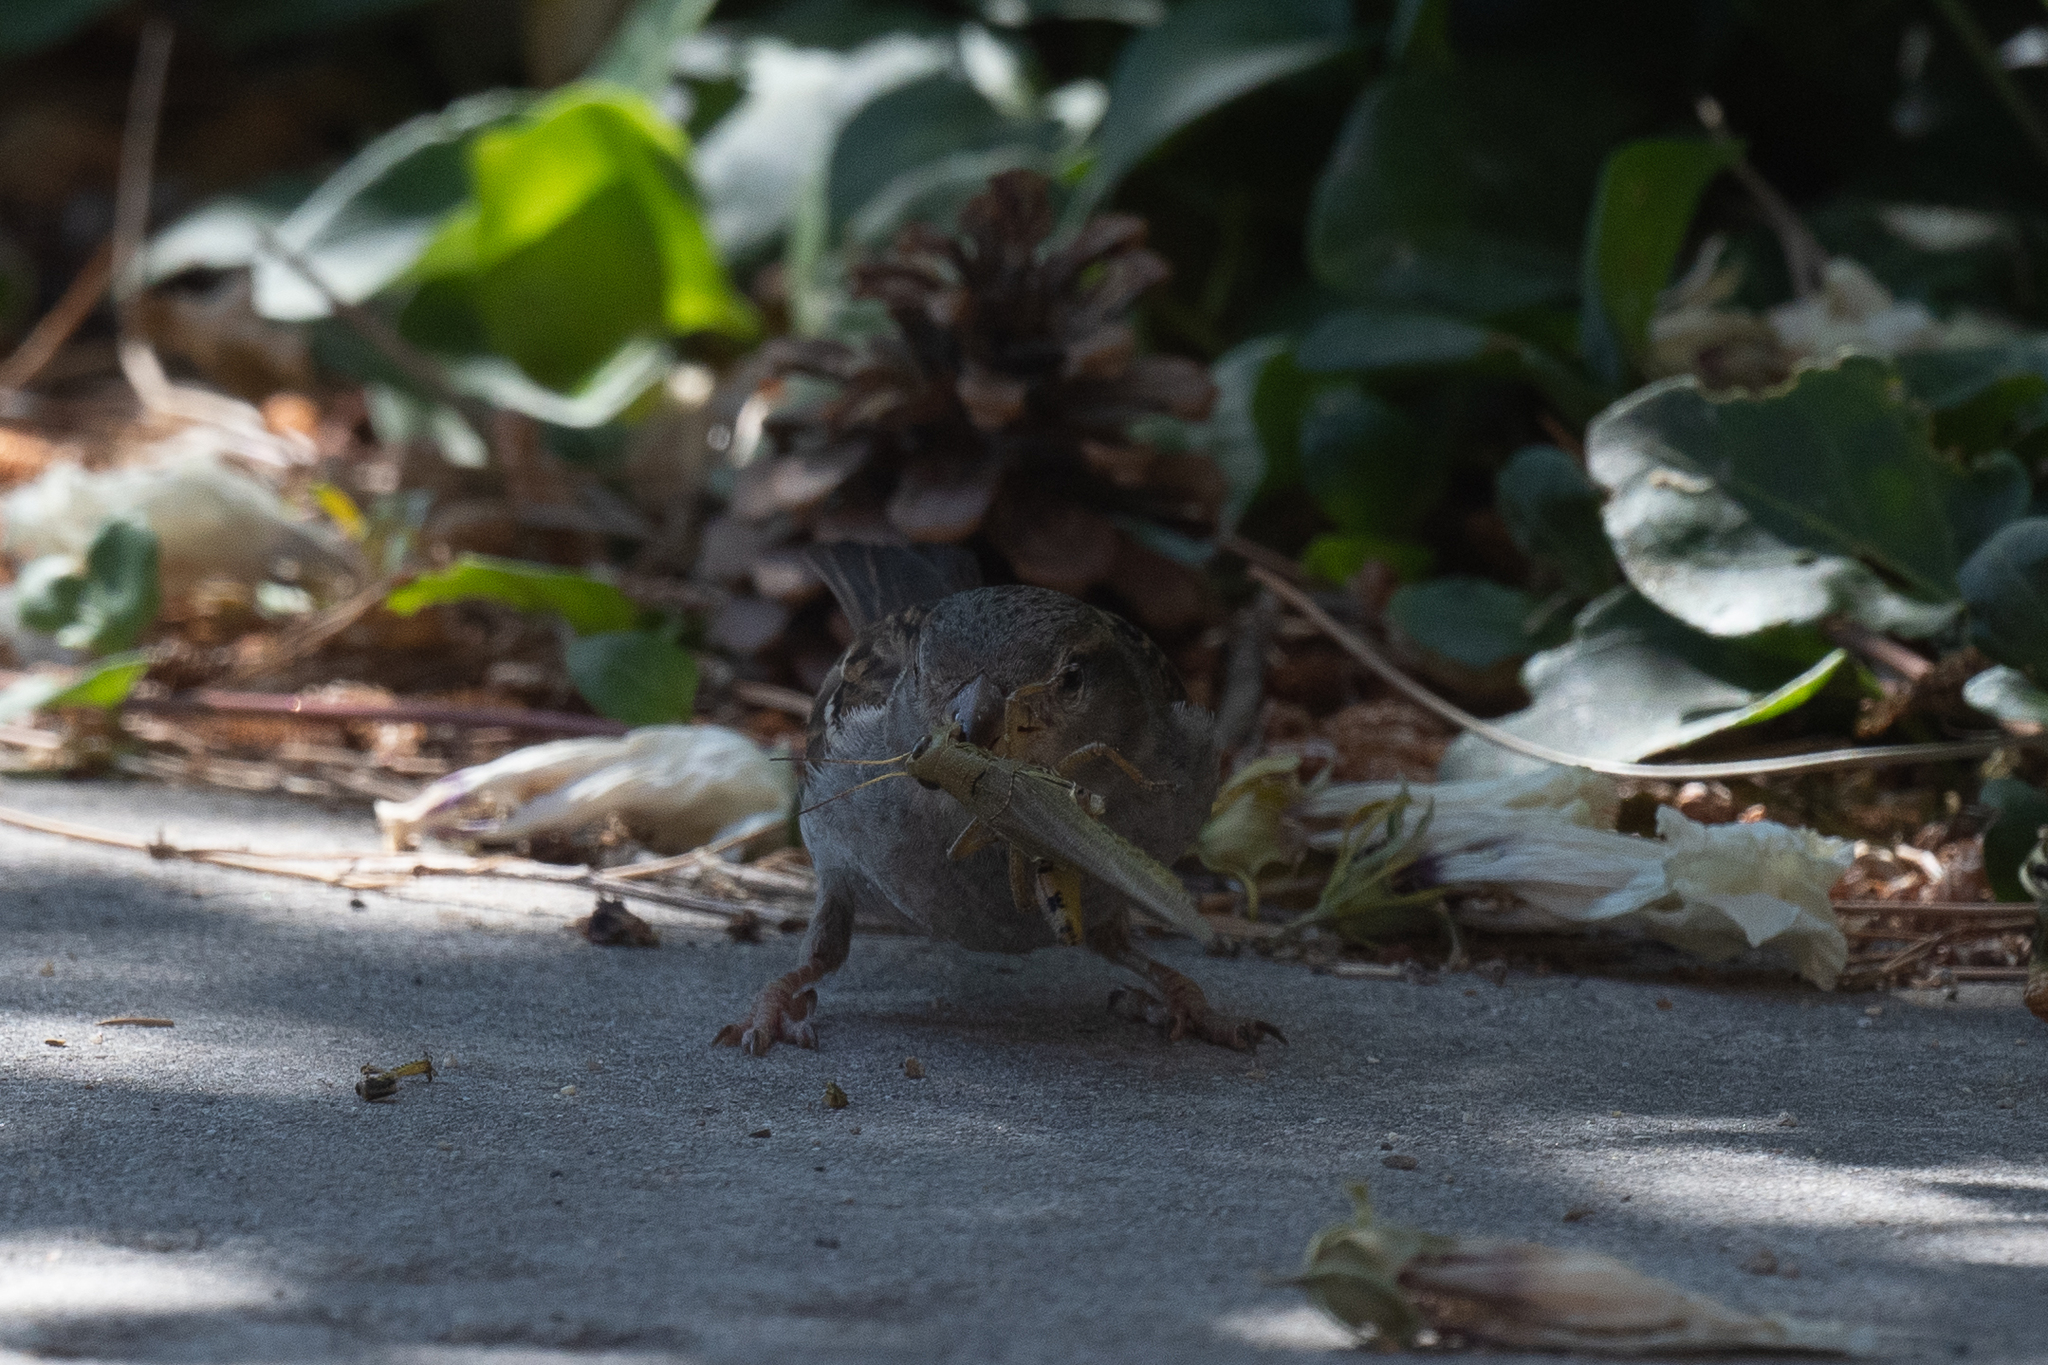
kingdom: Animalia
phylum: Chordata
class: Aves
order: Passeriformes
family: Passeridae
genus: Passer
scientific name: Passer domesticus
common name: House sparrow
